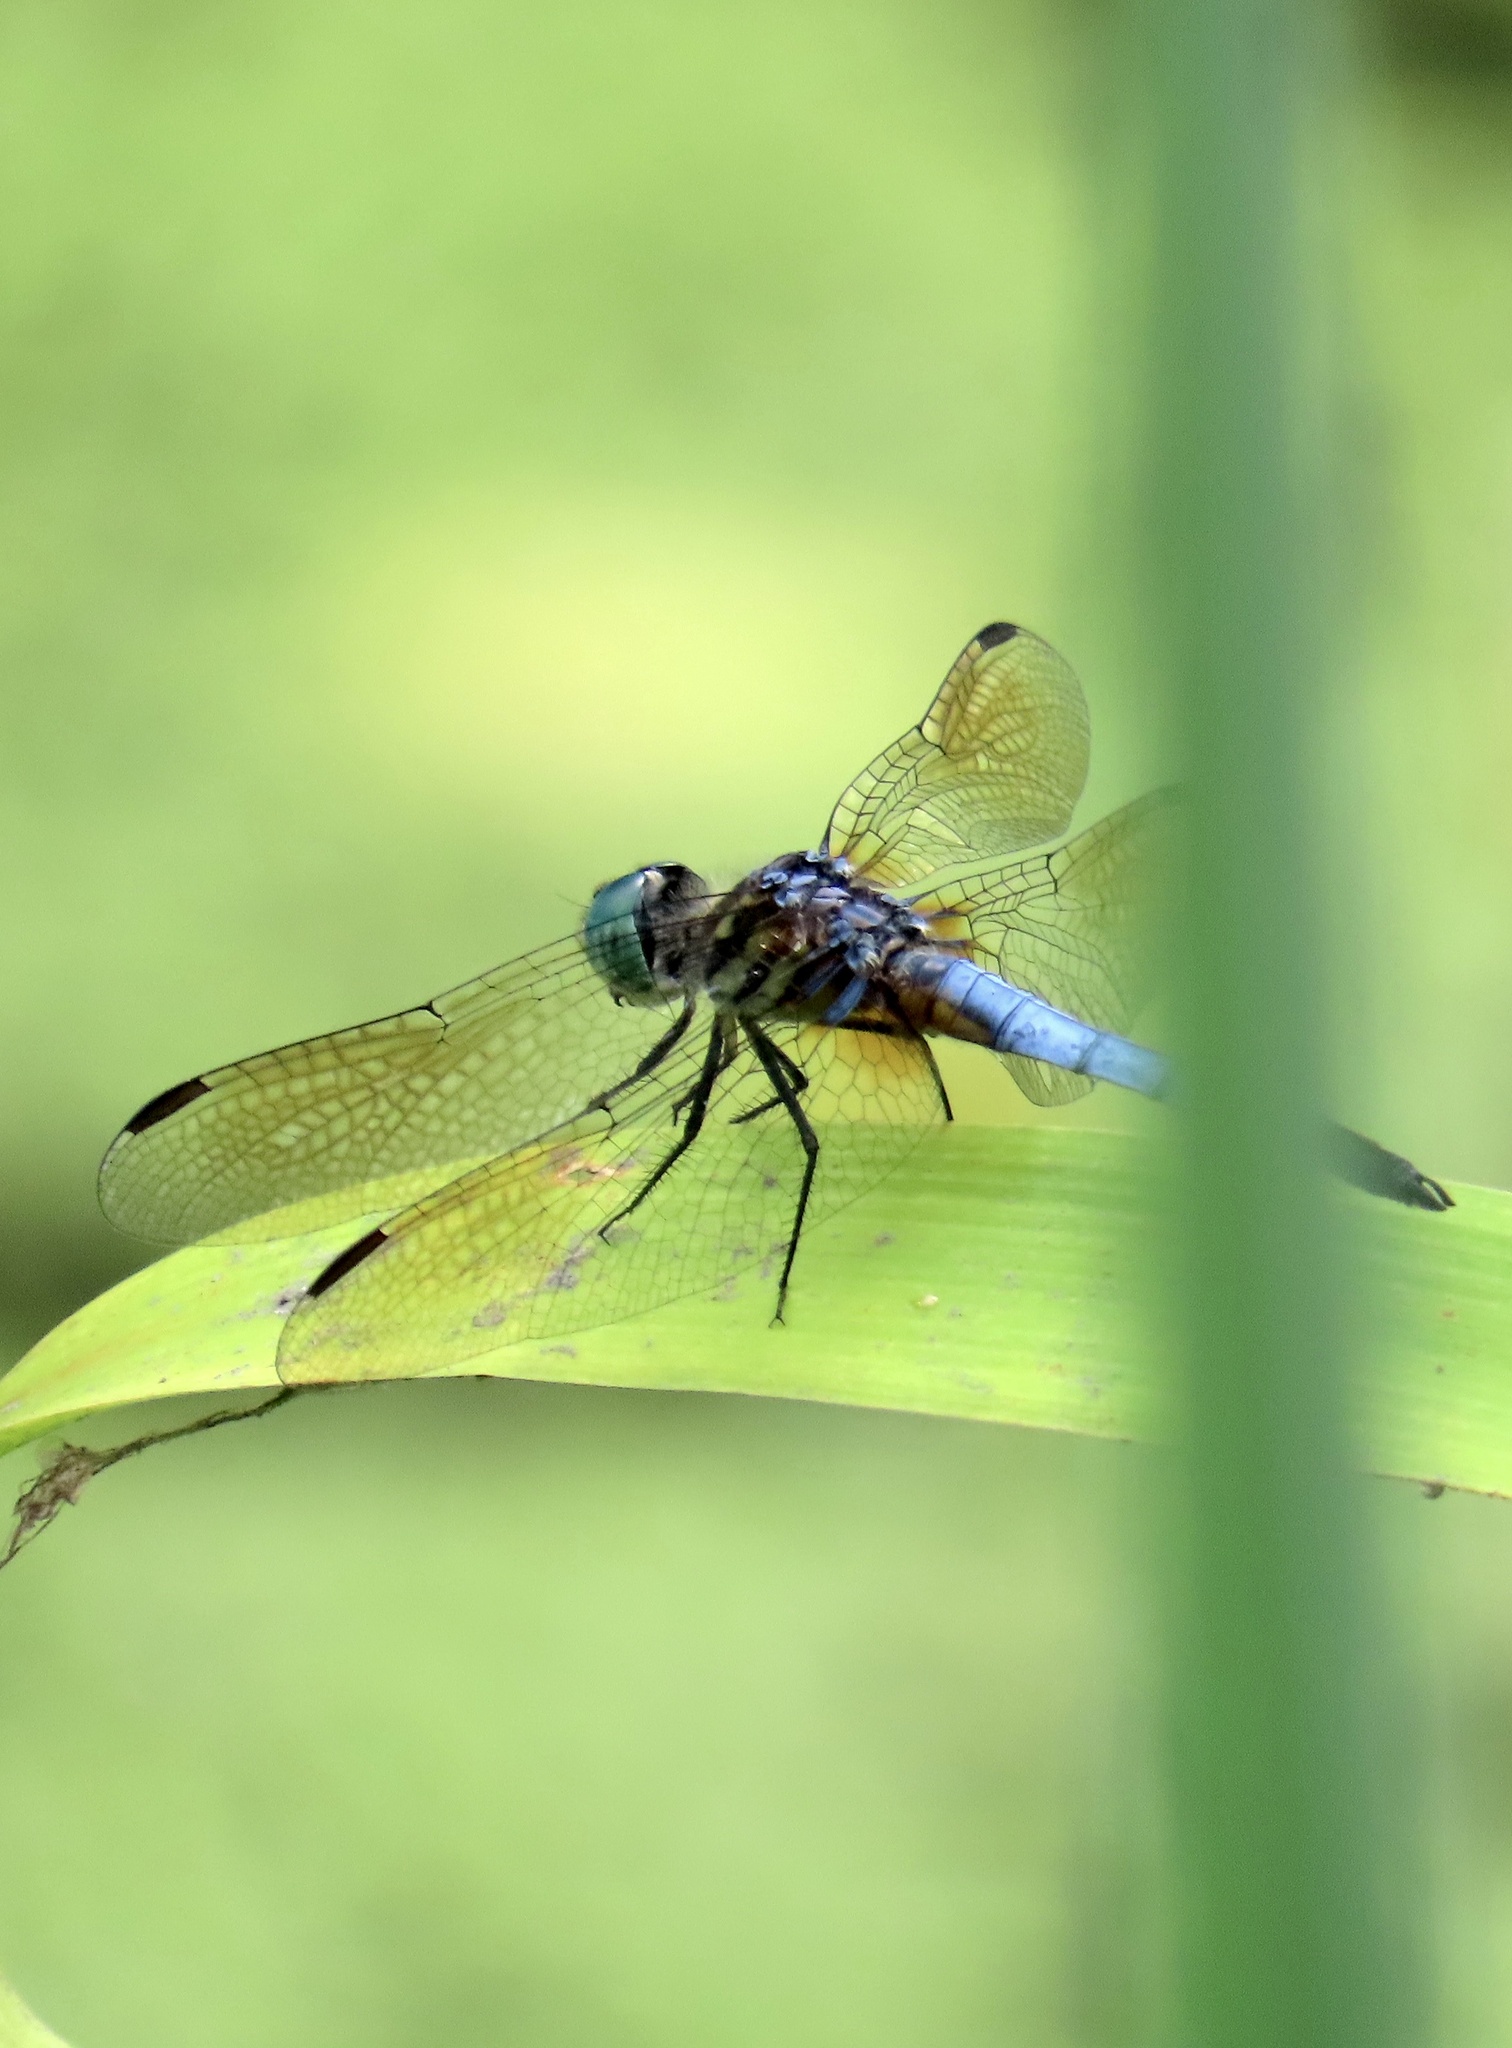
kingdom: Animalia
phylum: Arthropoda
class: Insecta
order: Odonata
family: Libellulidae
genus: Pachydiplax
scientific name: Pachydiplax longipennis
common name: Blue dasher
